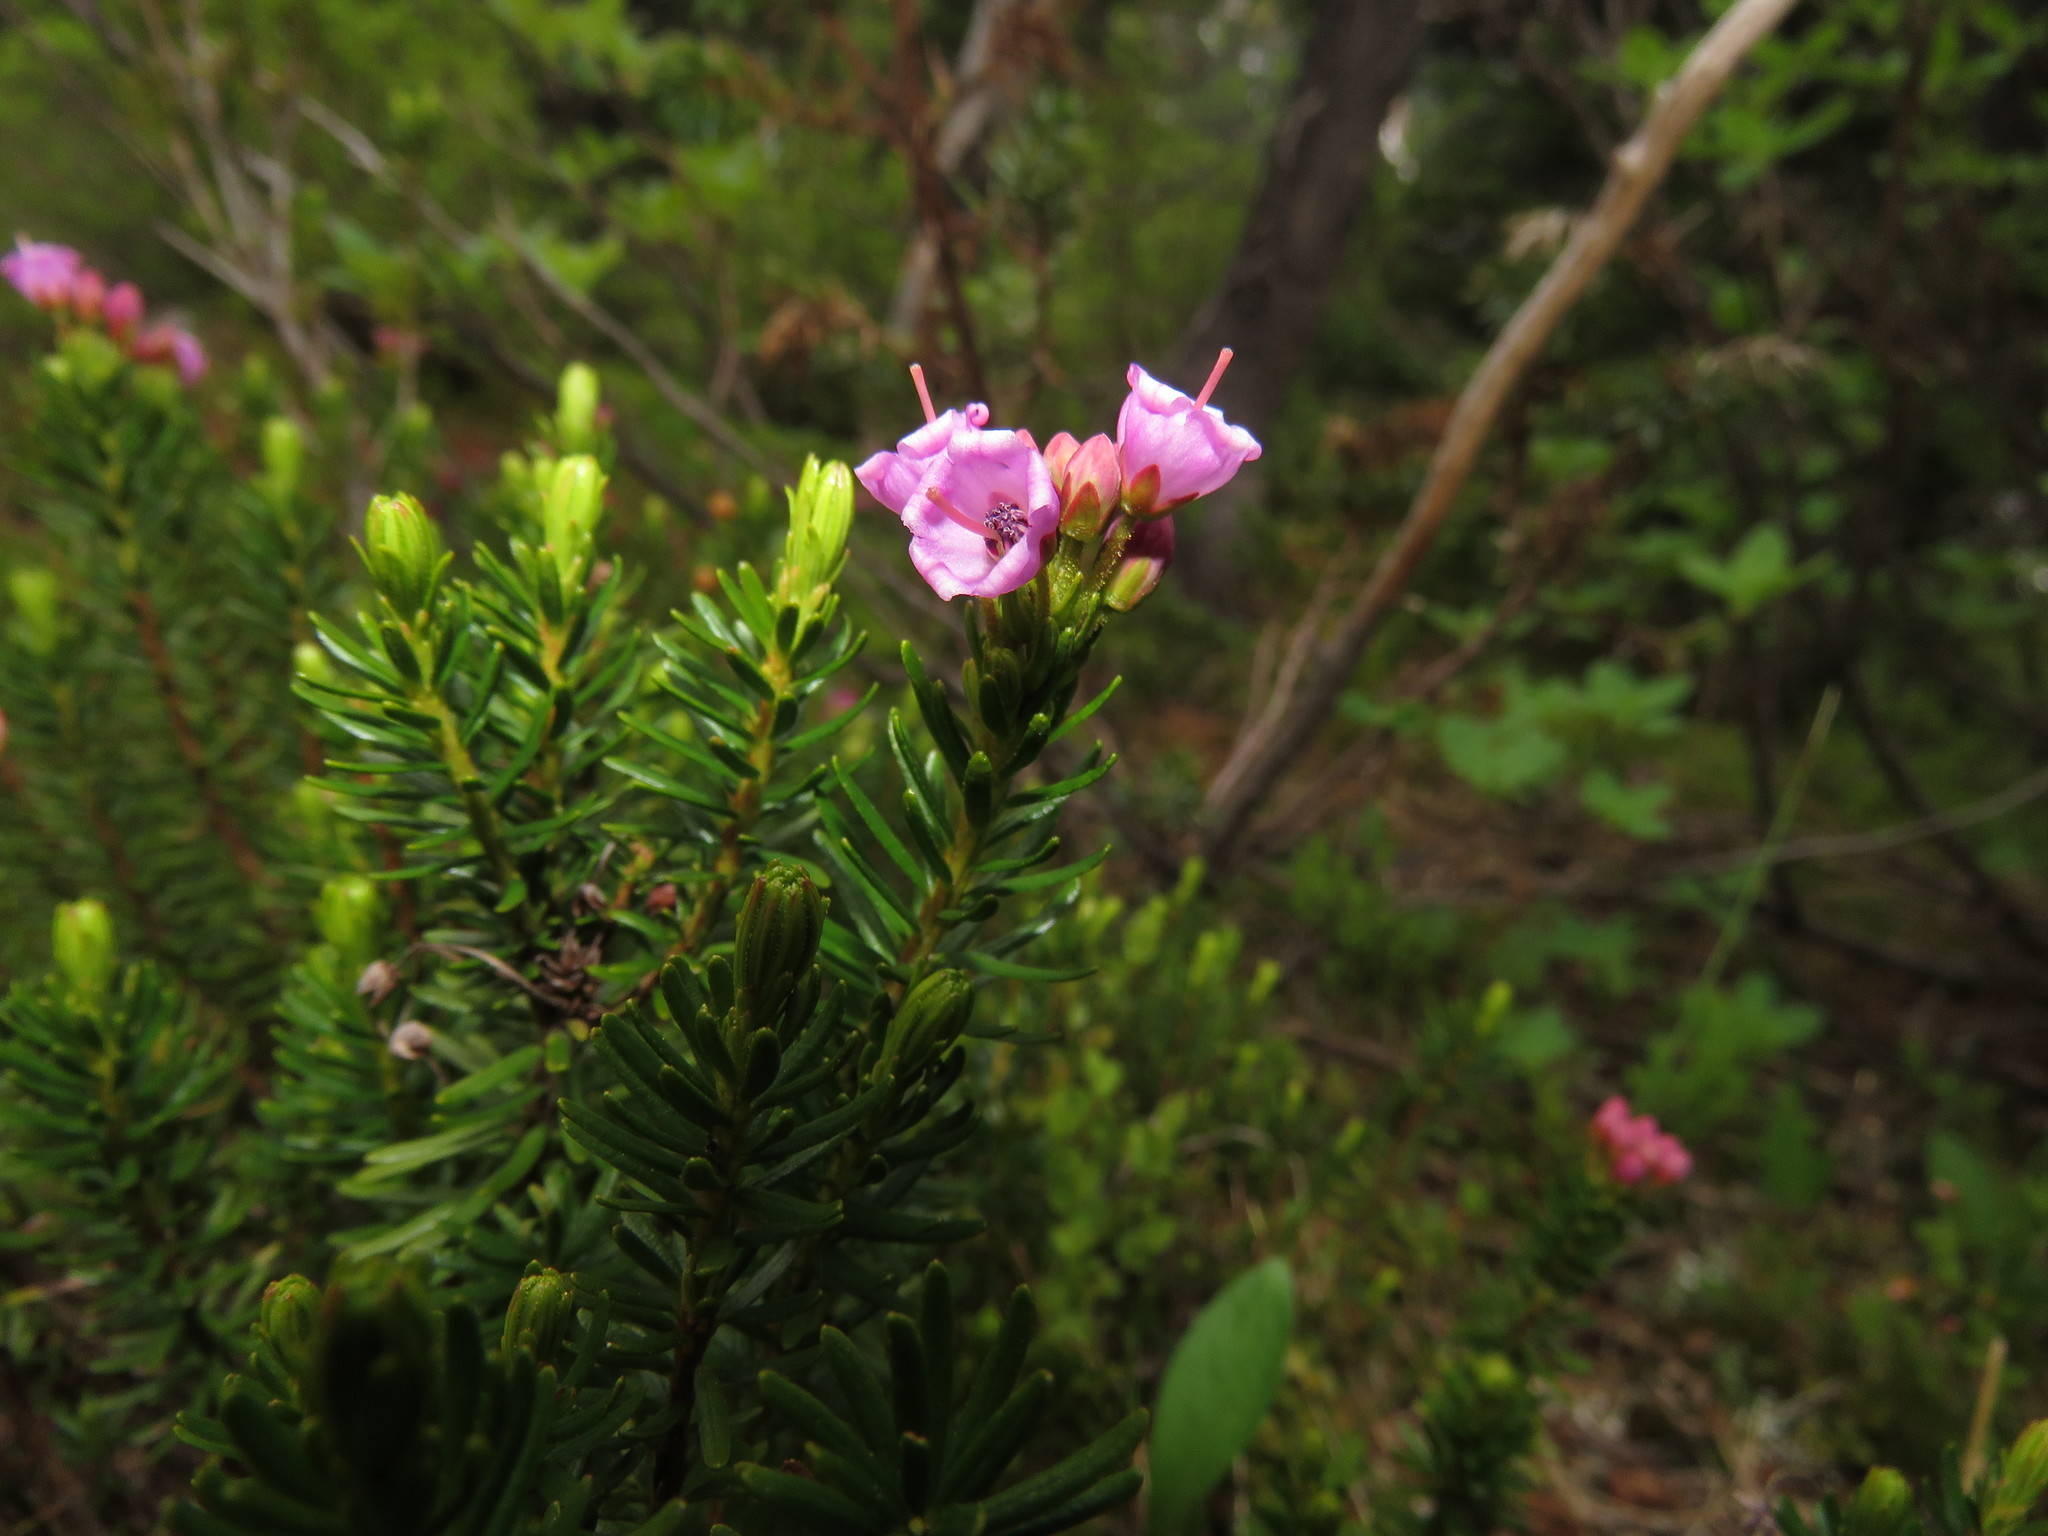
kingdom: Plantae
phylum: Tracheophyta
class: Magnoliopsida
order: Ericales
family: Ericaceae
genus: Phyllodoce
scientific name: Phyllodoce empetriformis
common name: Pink mountain heather
